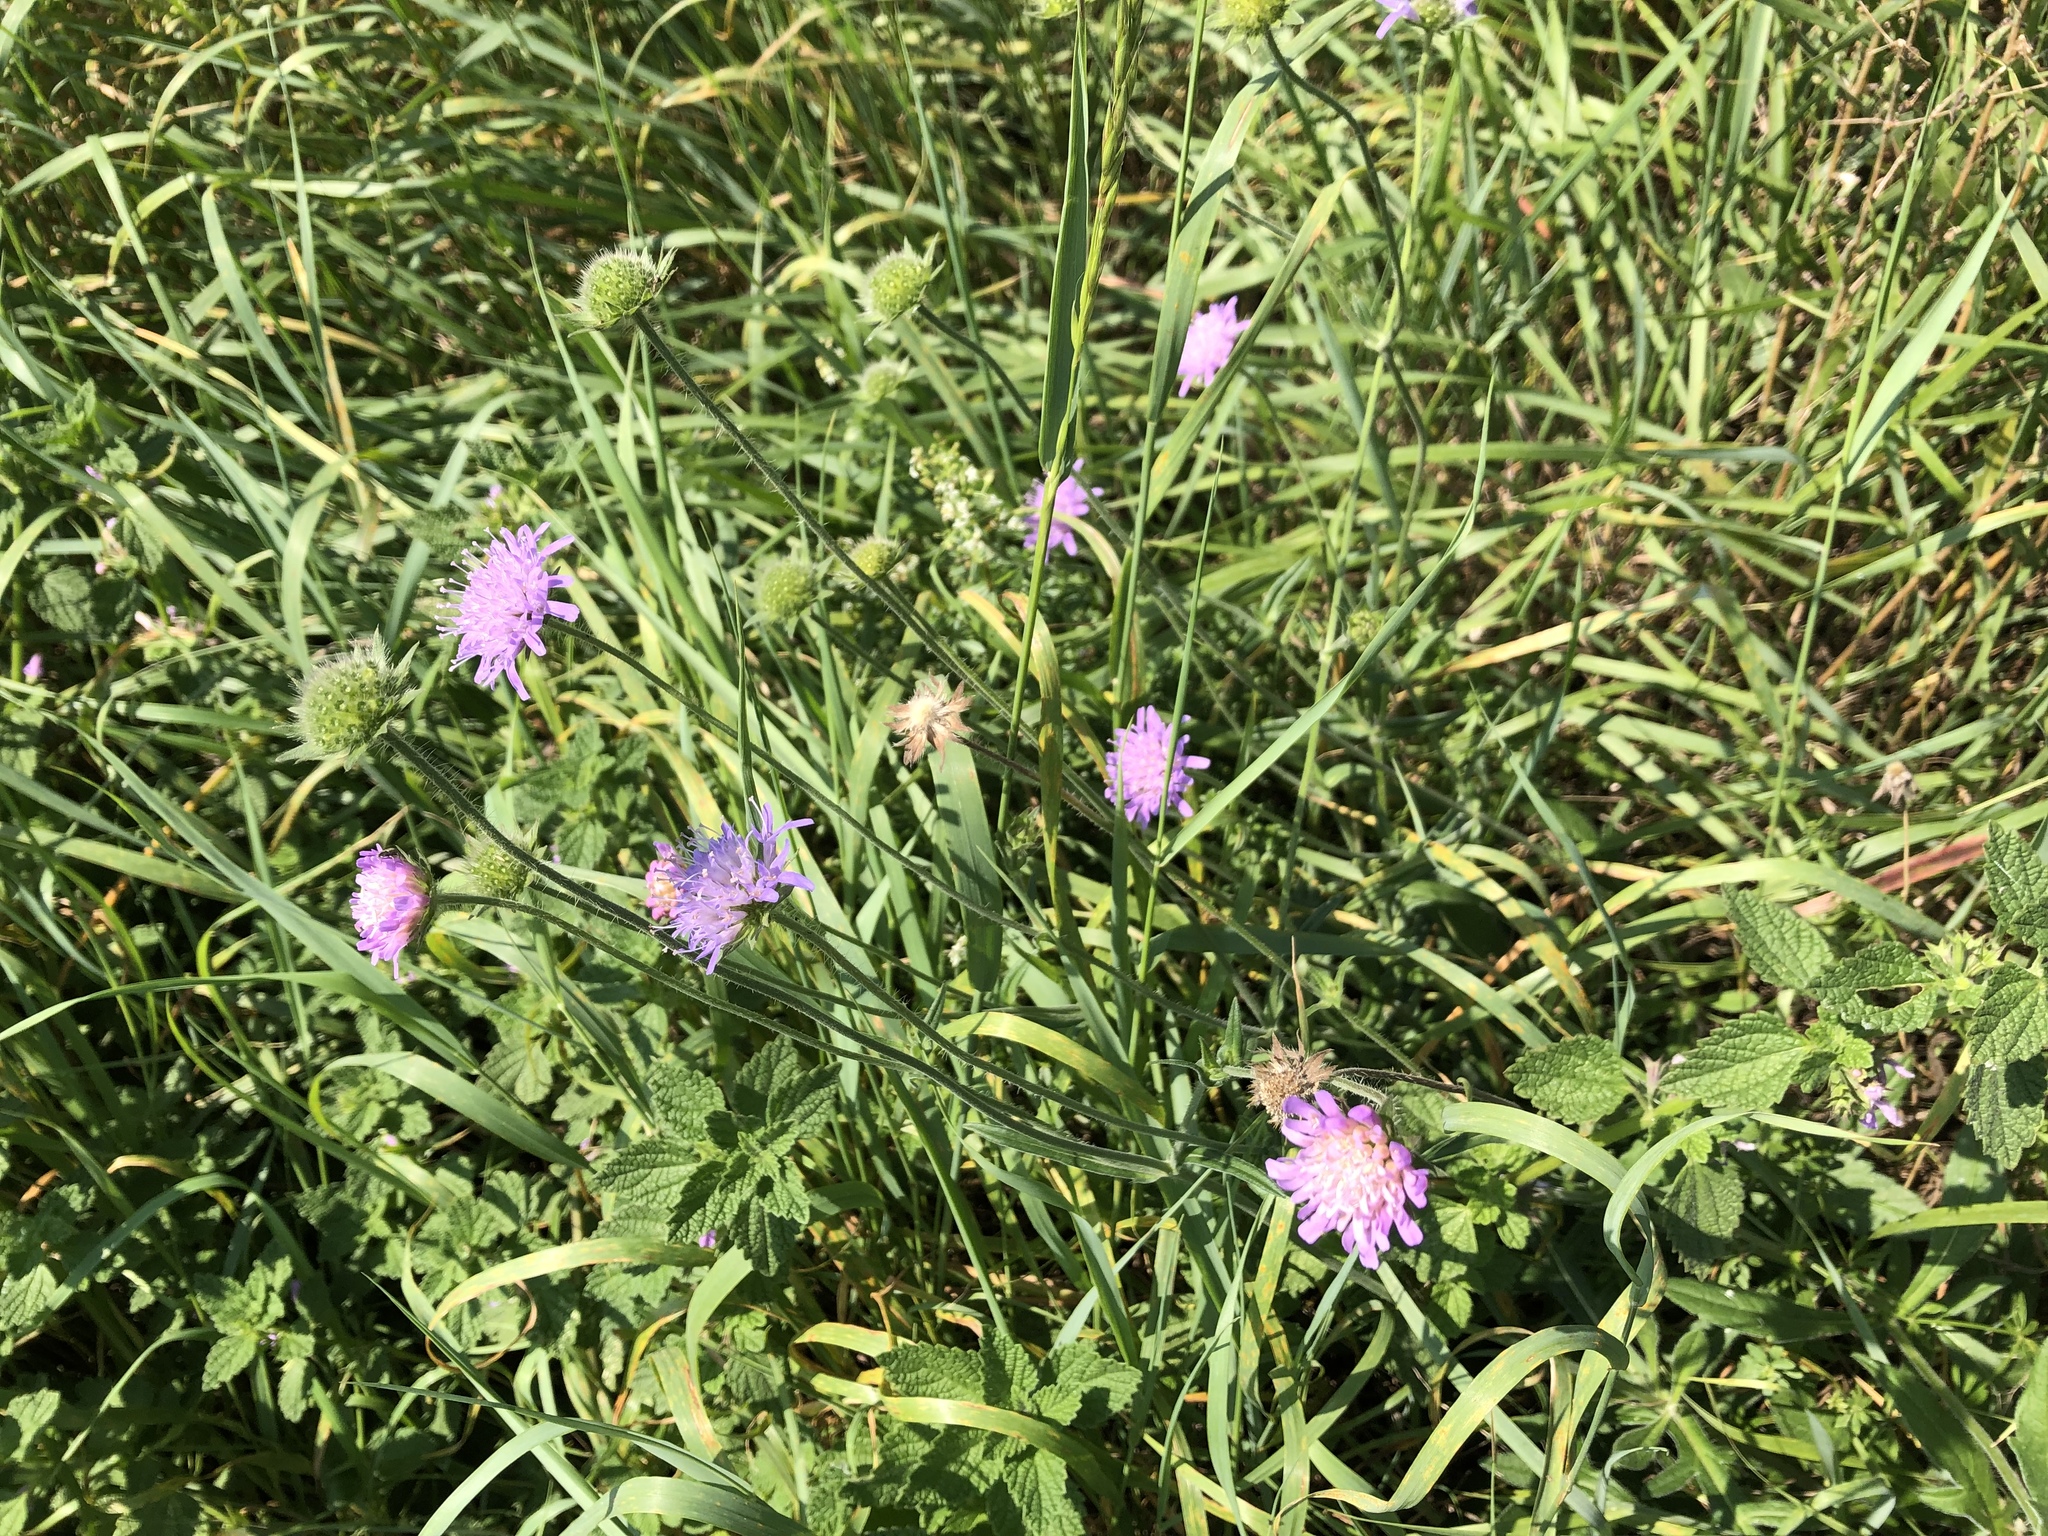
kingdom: Plantae
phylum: Tracheophyta
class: Magnoliopsida
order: Dipsacales
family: Caprifoliaceae
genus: Knautia
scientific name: Knautia arvensis
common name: Field scabiosa
